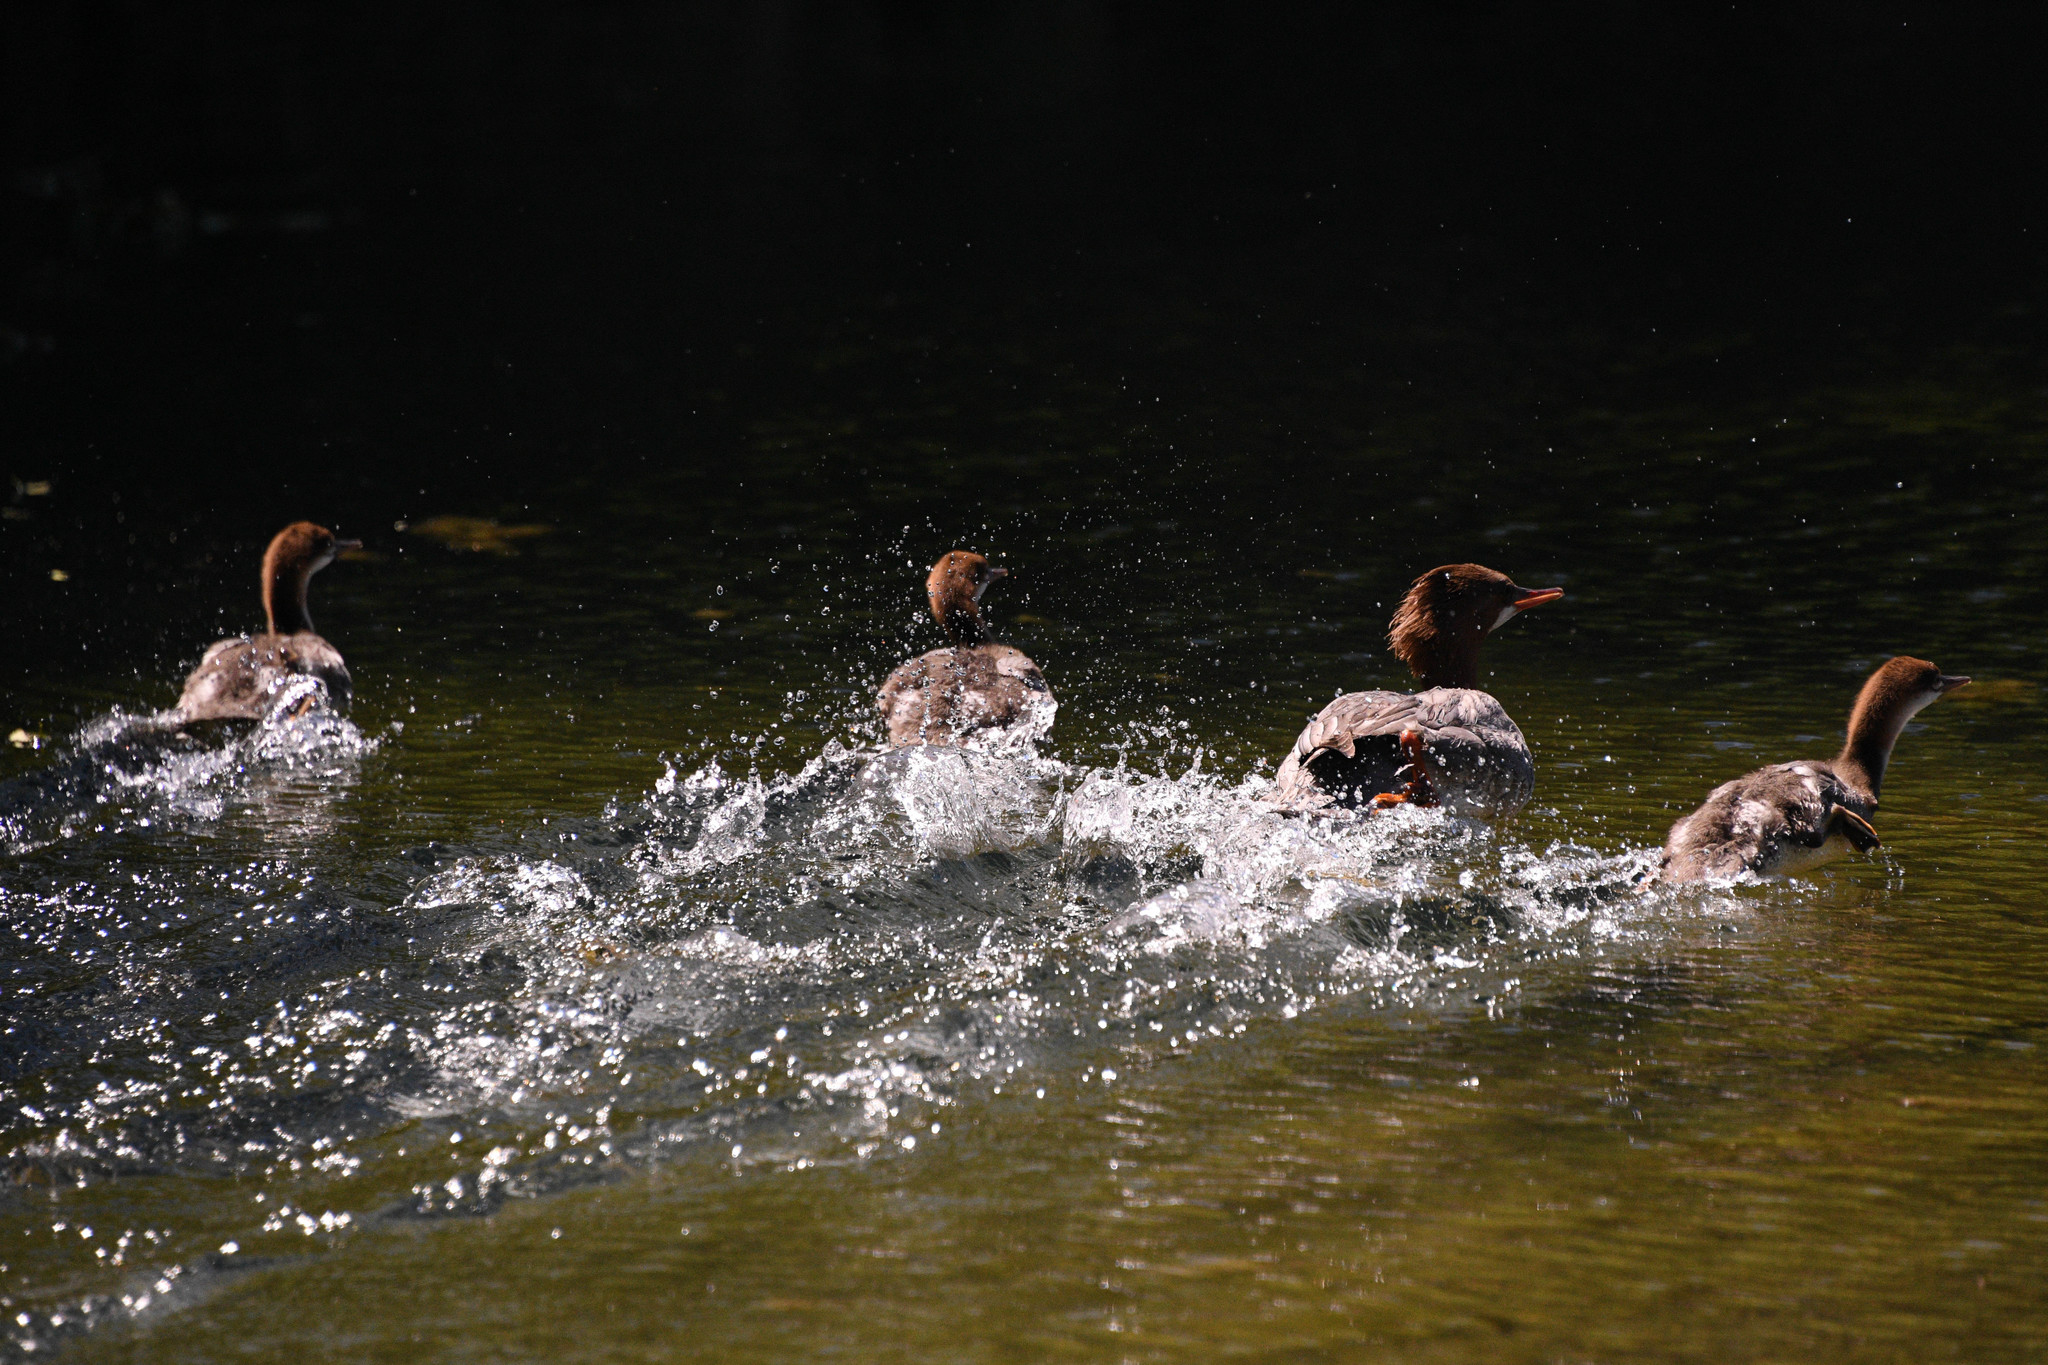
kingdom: Animalia
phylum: Chordata
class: Aves
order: Anseriformes
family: Anatidae
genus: Mergus
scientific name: Mergus merganser
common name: Common merganser
